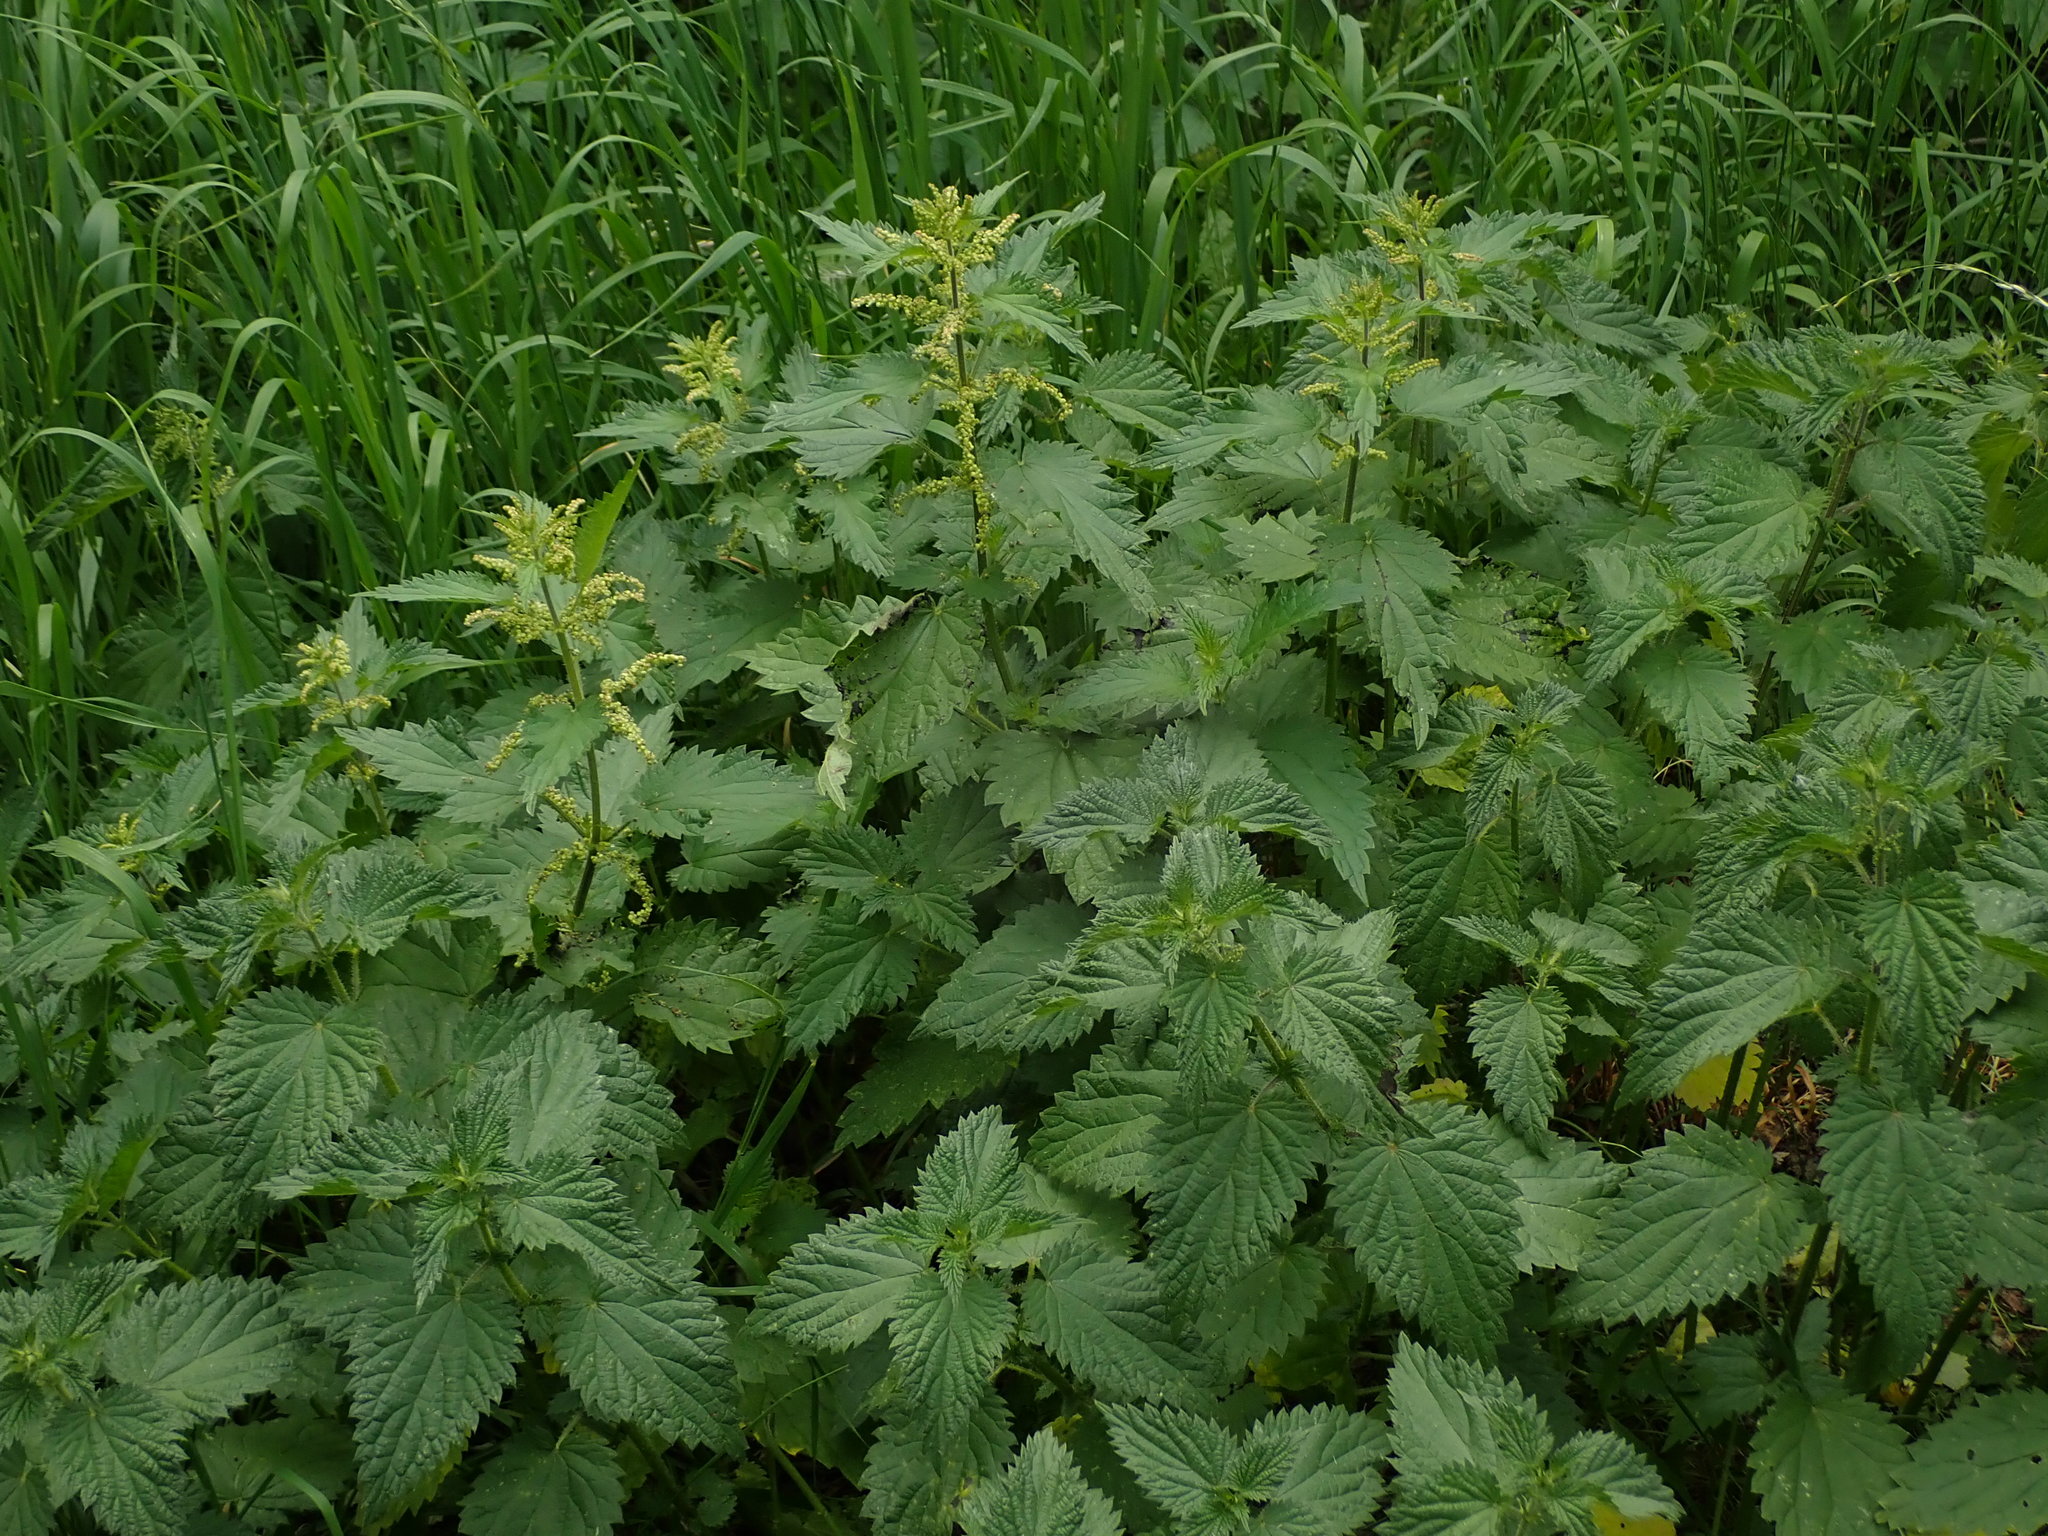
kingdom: Plantae
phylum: Tracheophyta
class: Magnoliopsida
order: Rosales
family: Urticaceae
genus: Urtica
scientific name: Urtica dioica
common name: Common nettle
